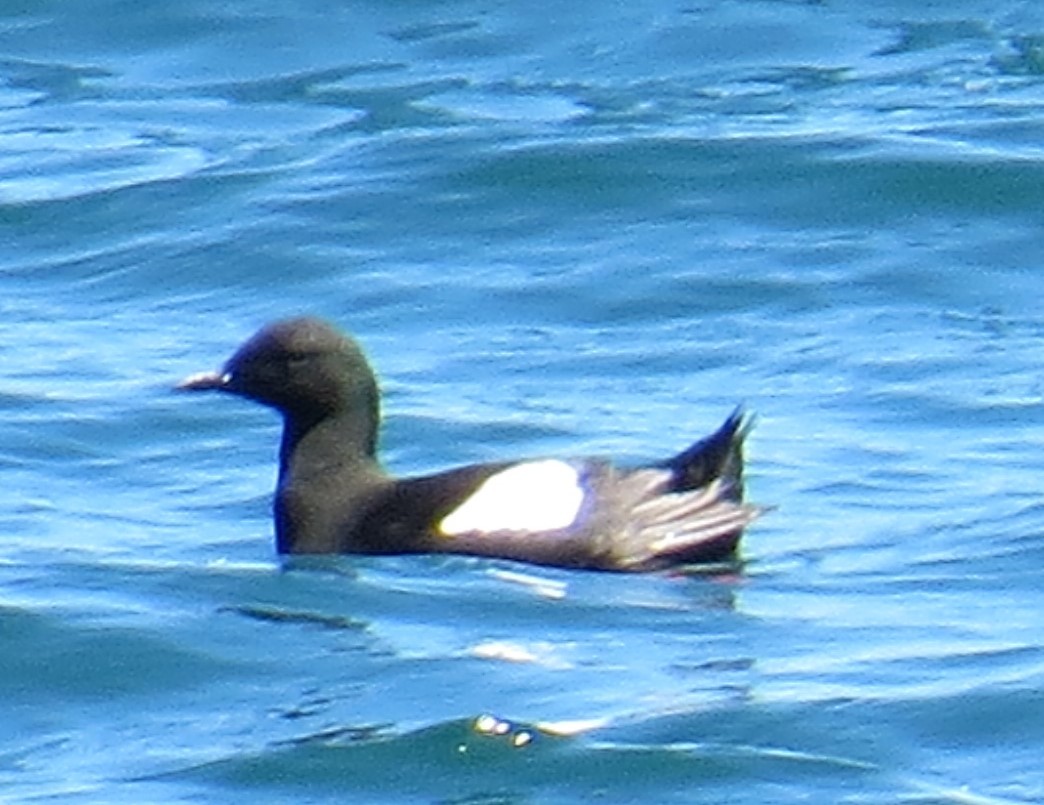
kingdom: Animalia
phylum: Chordata
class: Aves
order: Charadriiformes
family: Alcidae
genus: Cepphus
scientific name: Cepphus grylle
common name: Black guillemot
